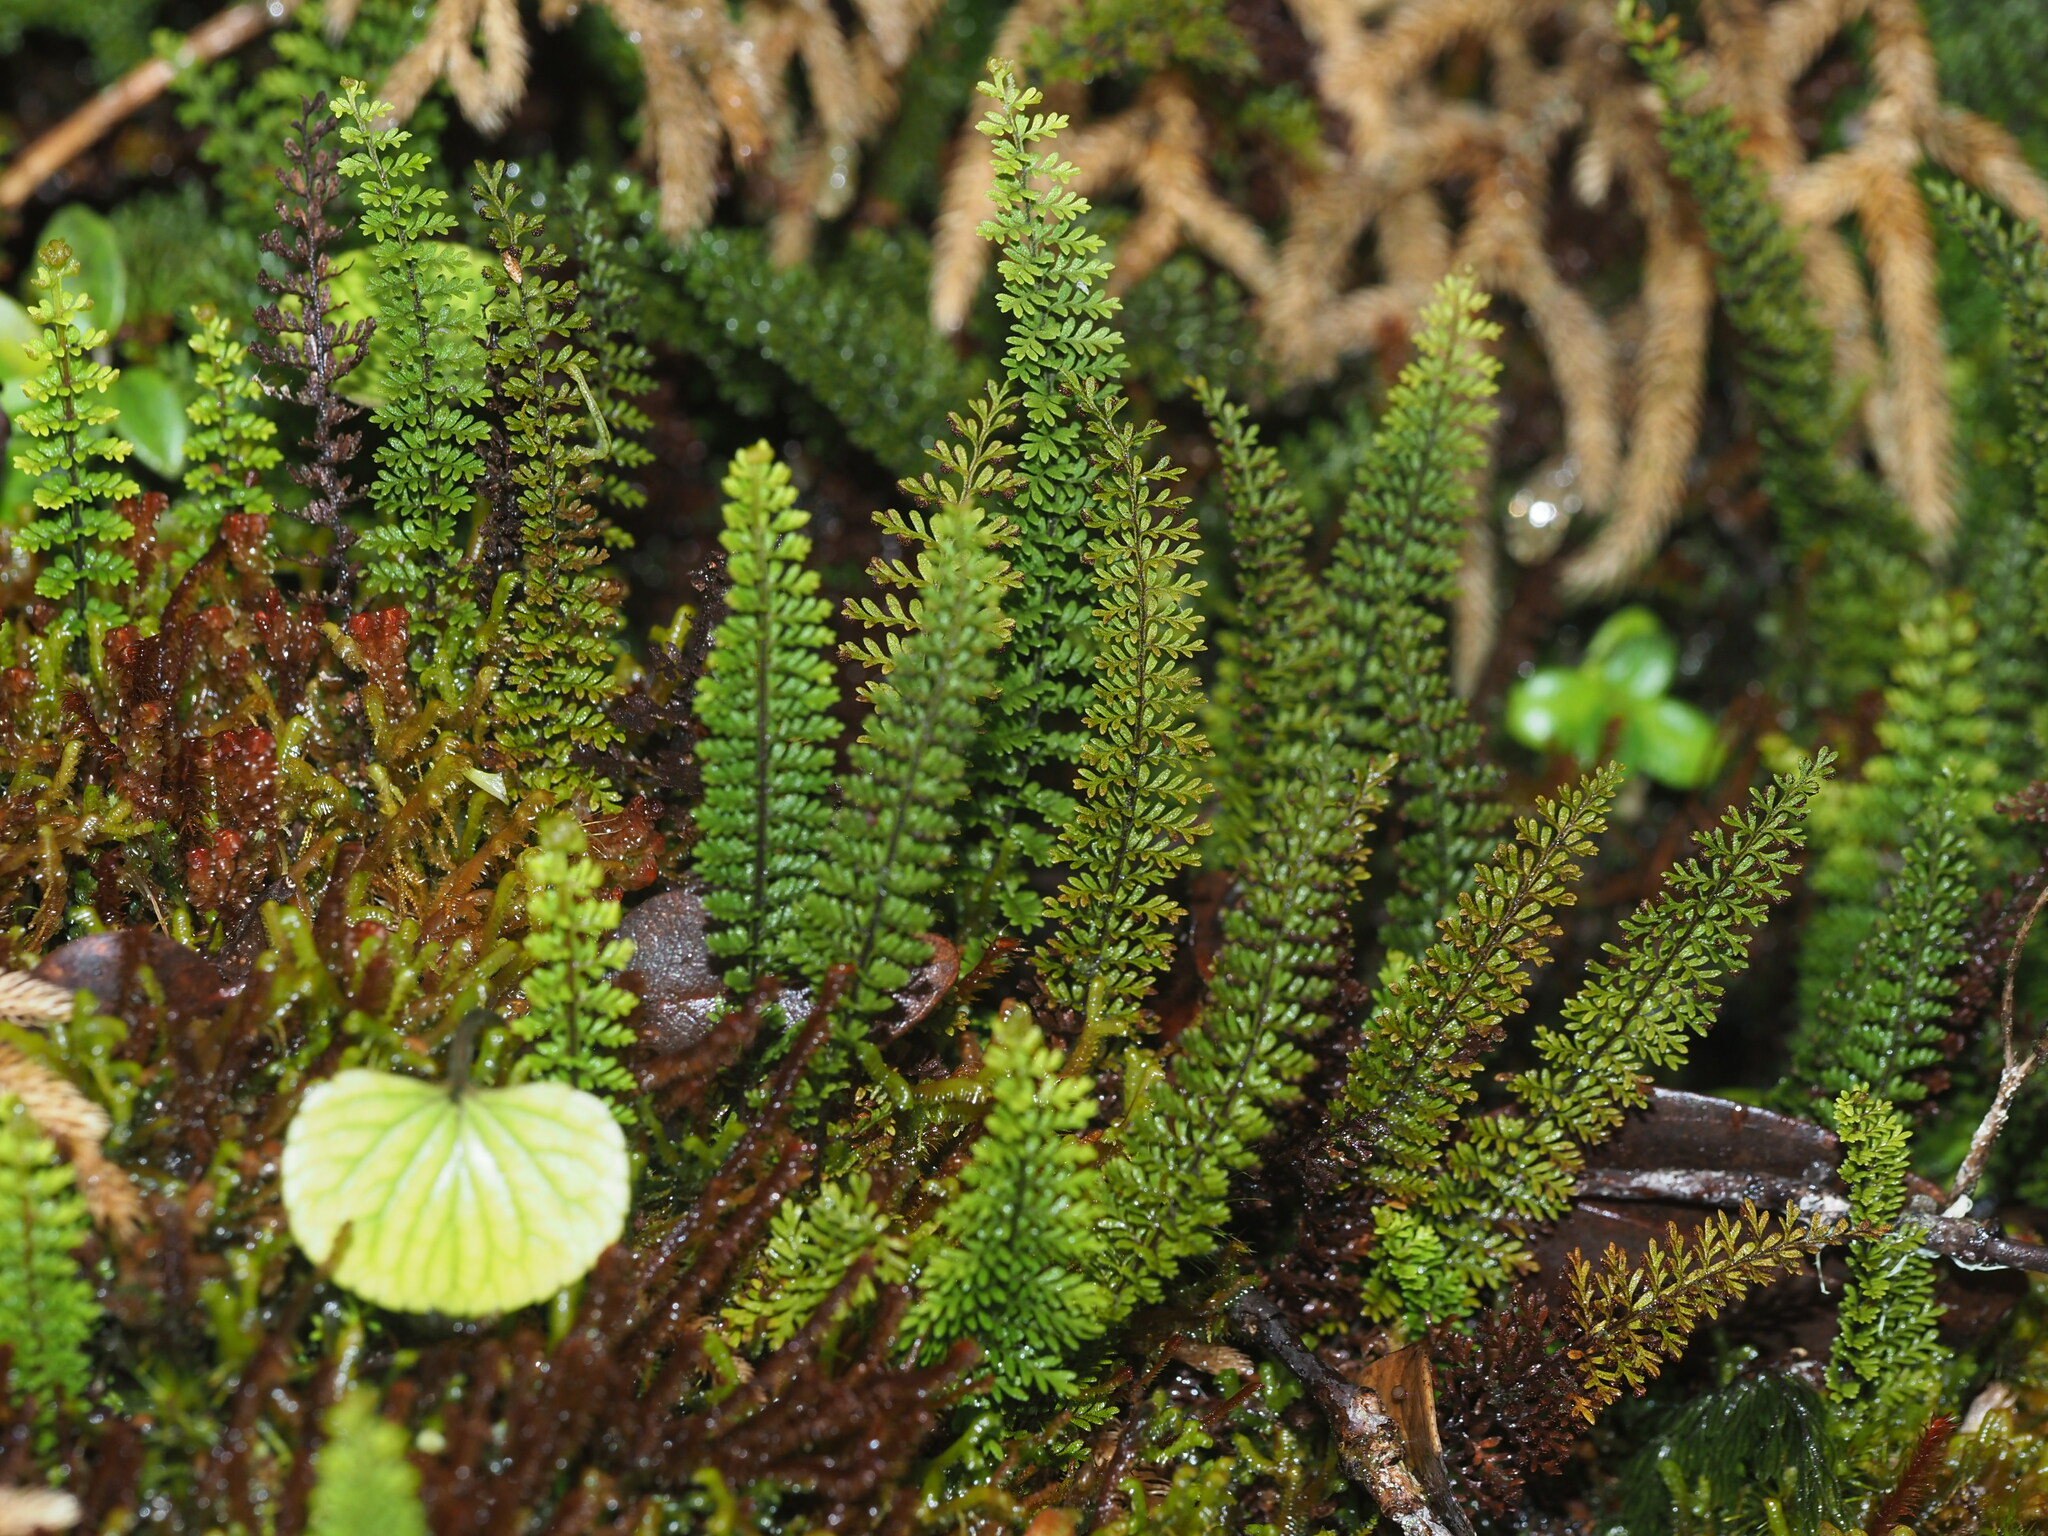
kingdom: Plantae
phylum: Tracheophyta
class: Polypodiopsida
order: Polypodiales
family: Polypodiaceae
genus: Adenophorus
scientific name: Adenophorus epigaeus
